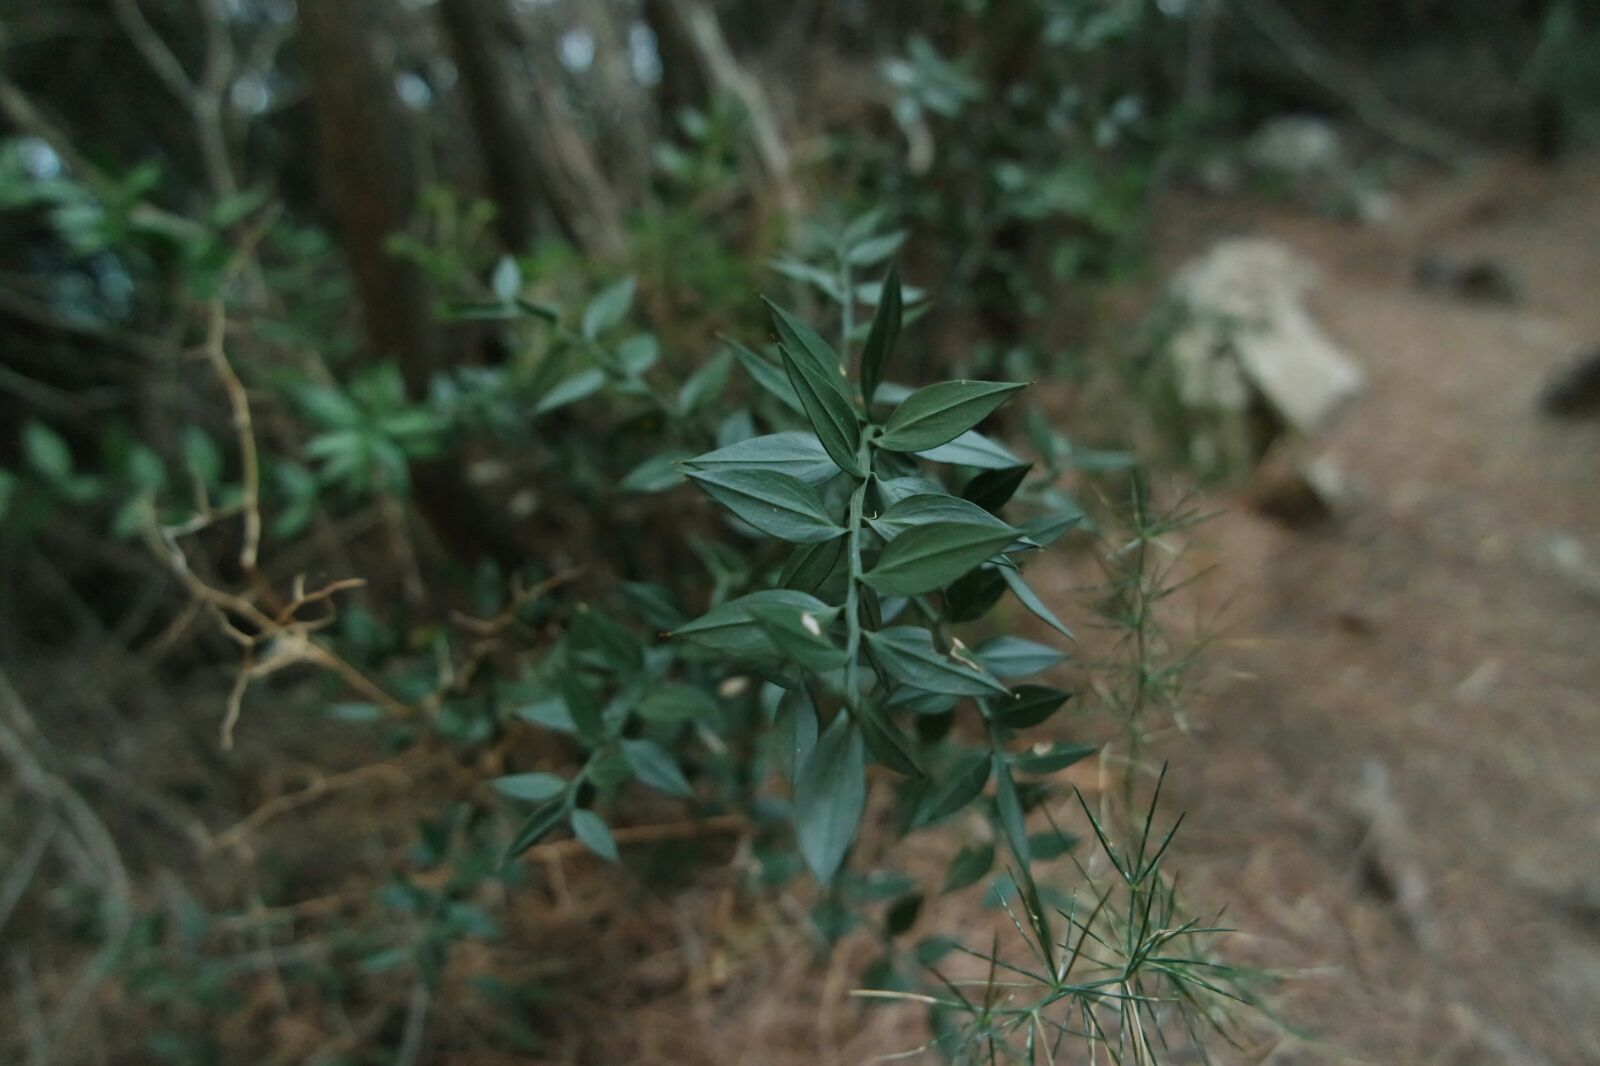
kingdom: Plantae
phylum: Tracheophyta
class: Liliopsida
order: Asparagales
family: Asparagaceae
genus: Ruscus
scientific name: Ruscus aculeatus
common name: Butcher's-broom
